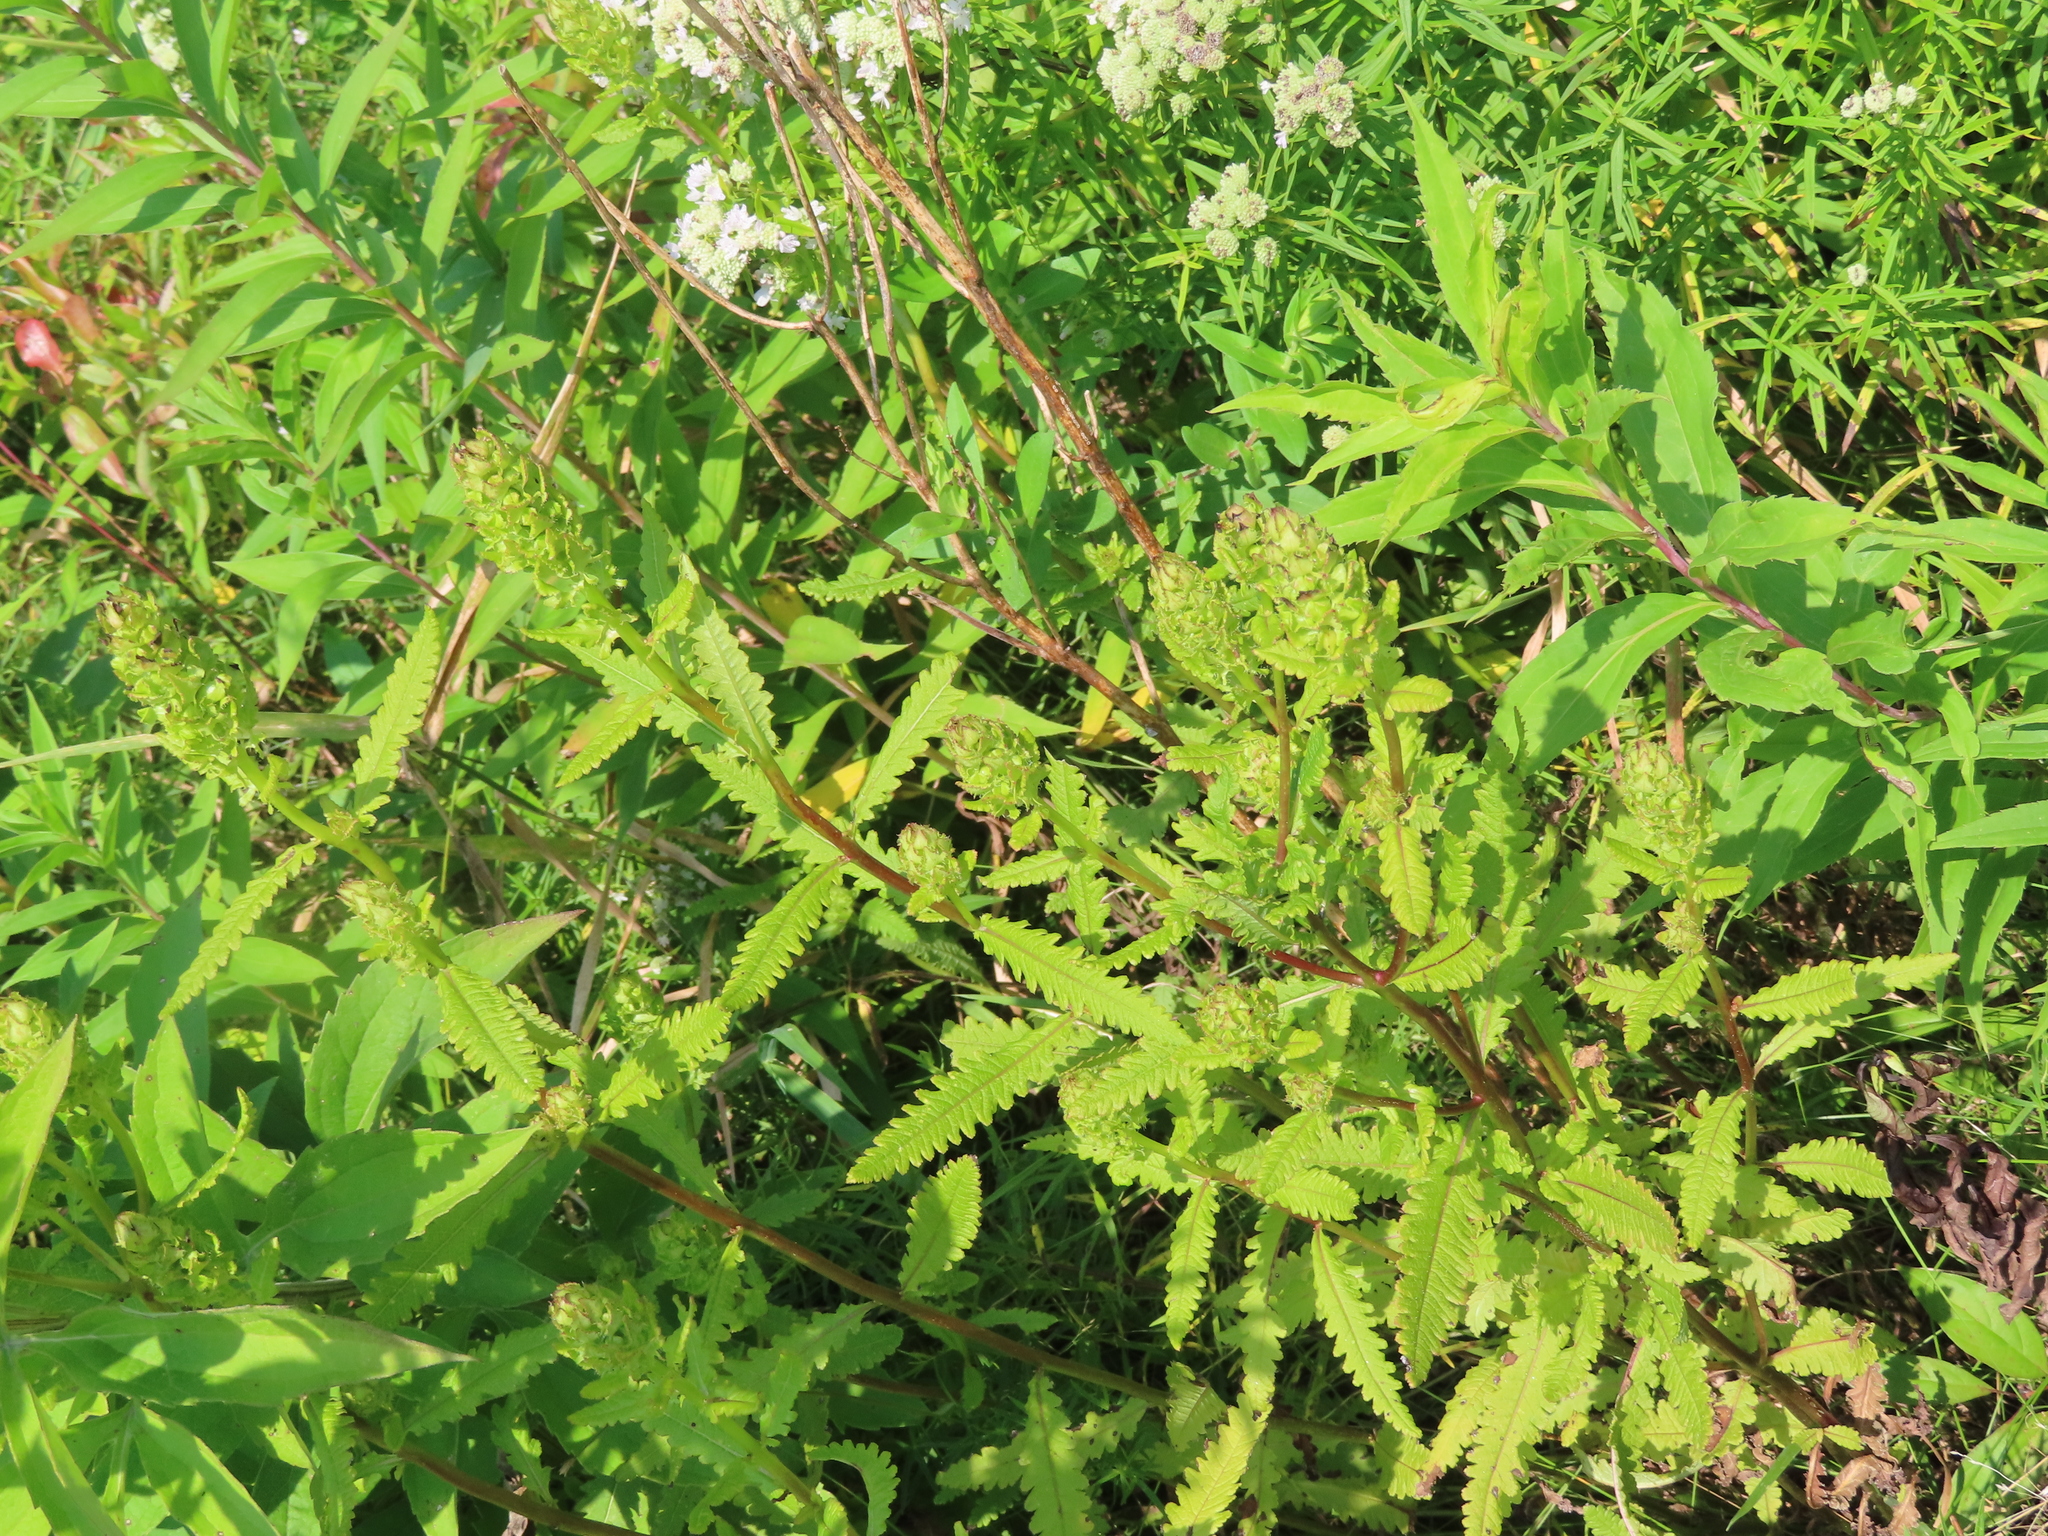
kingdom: Plantae
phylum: Tracheophyta
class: Magnoliopsida
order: Lamiales
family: Orobanchaceae
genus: Pedicularis
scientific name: Pedicularis lanceolata
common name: Swamp lousewort
